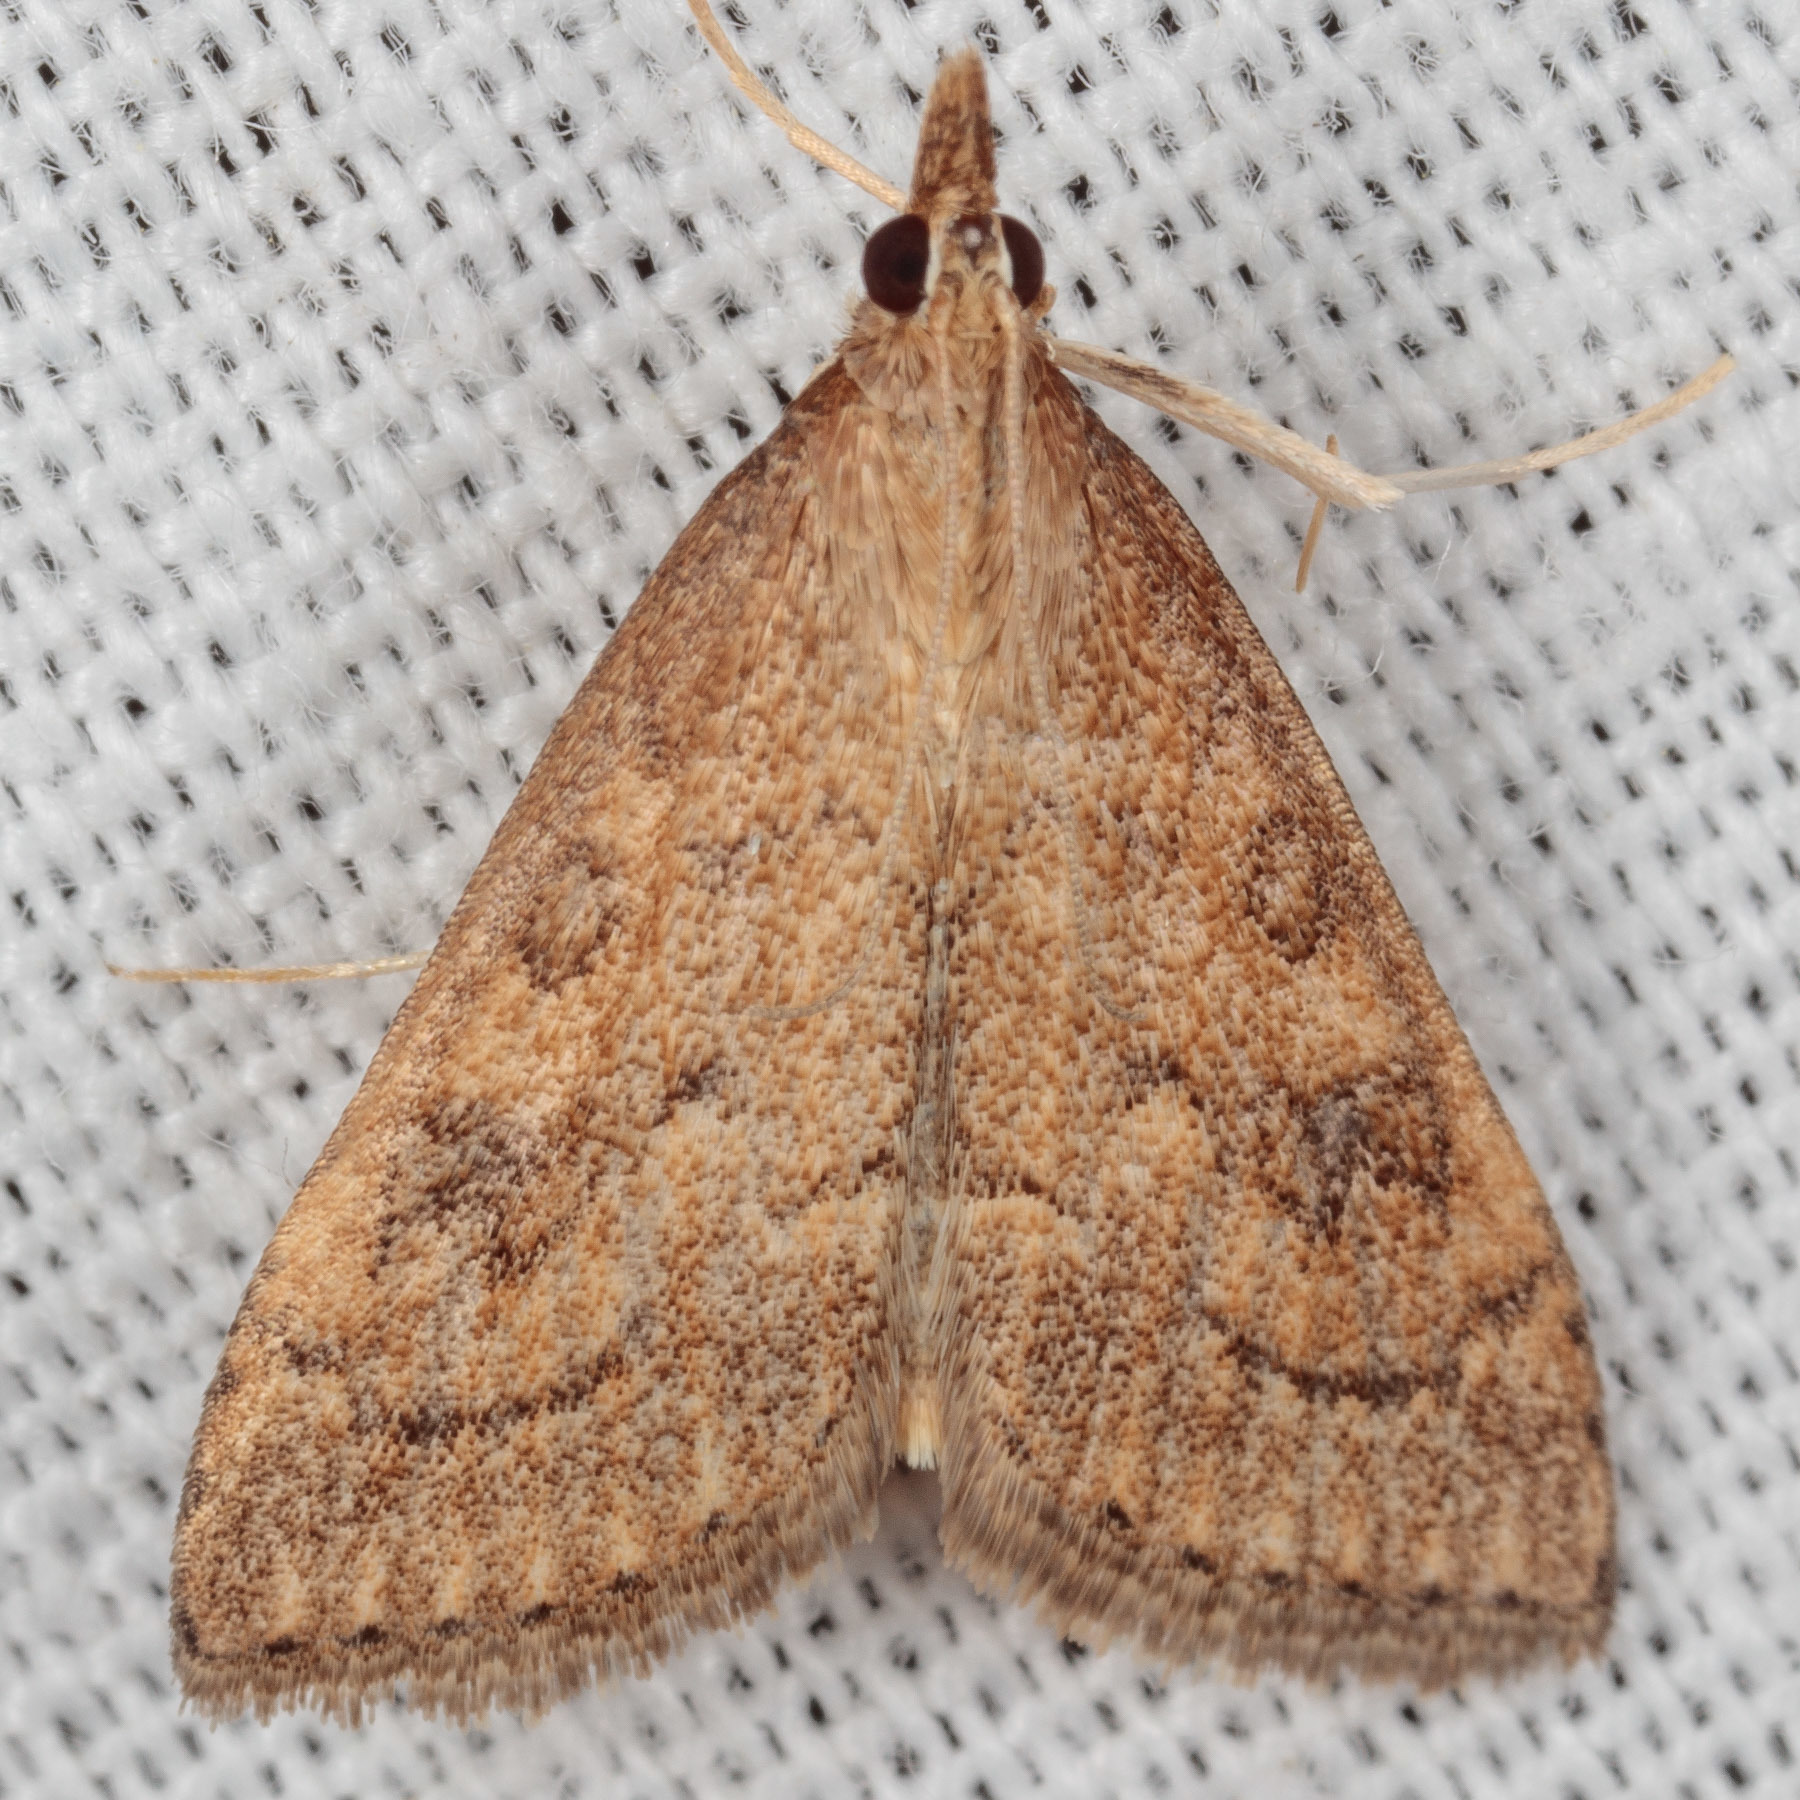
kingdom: Animalia
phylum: Arthropoda
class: Insecta
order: Lepidoptera
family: Crambidae
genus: Udea
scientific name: Udea rubigalis
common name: Celery leaftier moth
